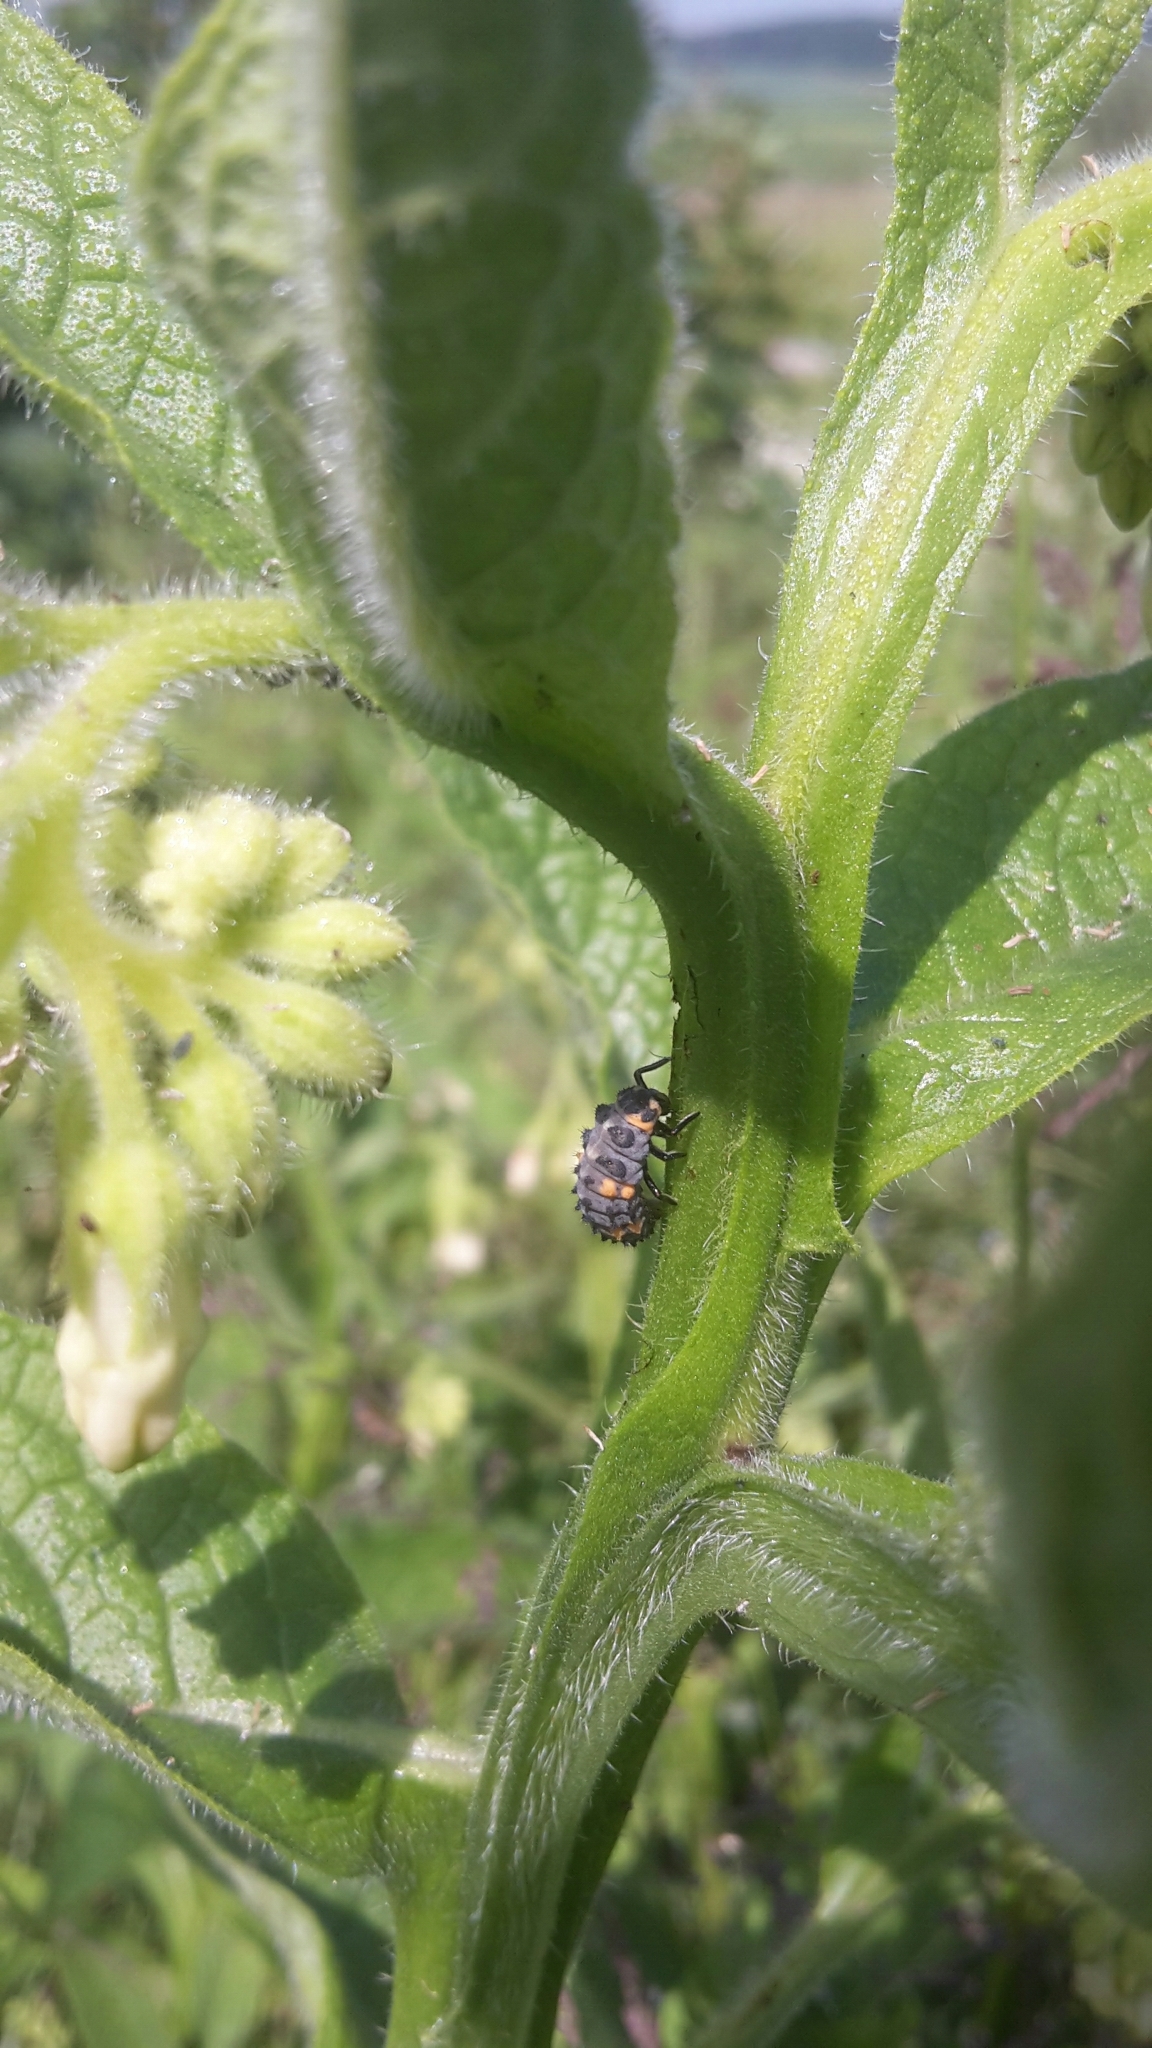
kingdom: Animalia
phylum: Arthropoda
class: Insecta
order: Coleoptera
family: Coccinellidae
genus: Coccinella
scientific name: Coccinella septempunctata
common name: Sevenspotted lady beetle
